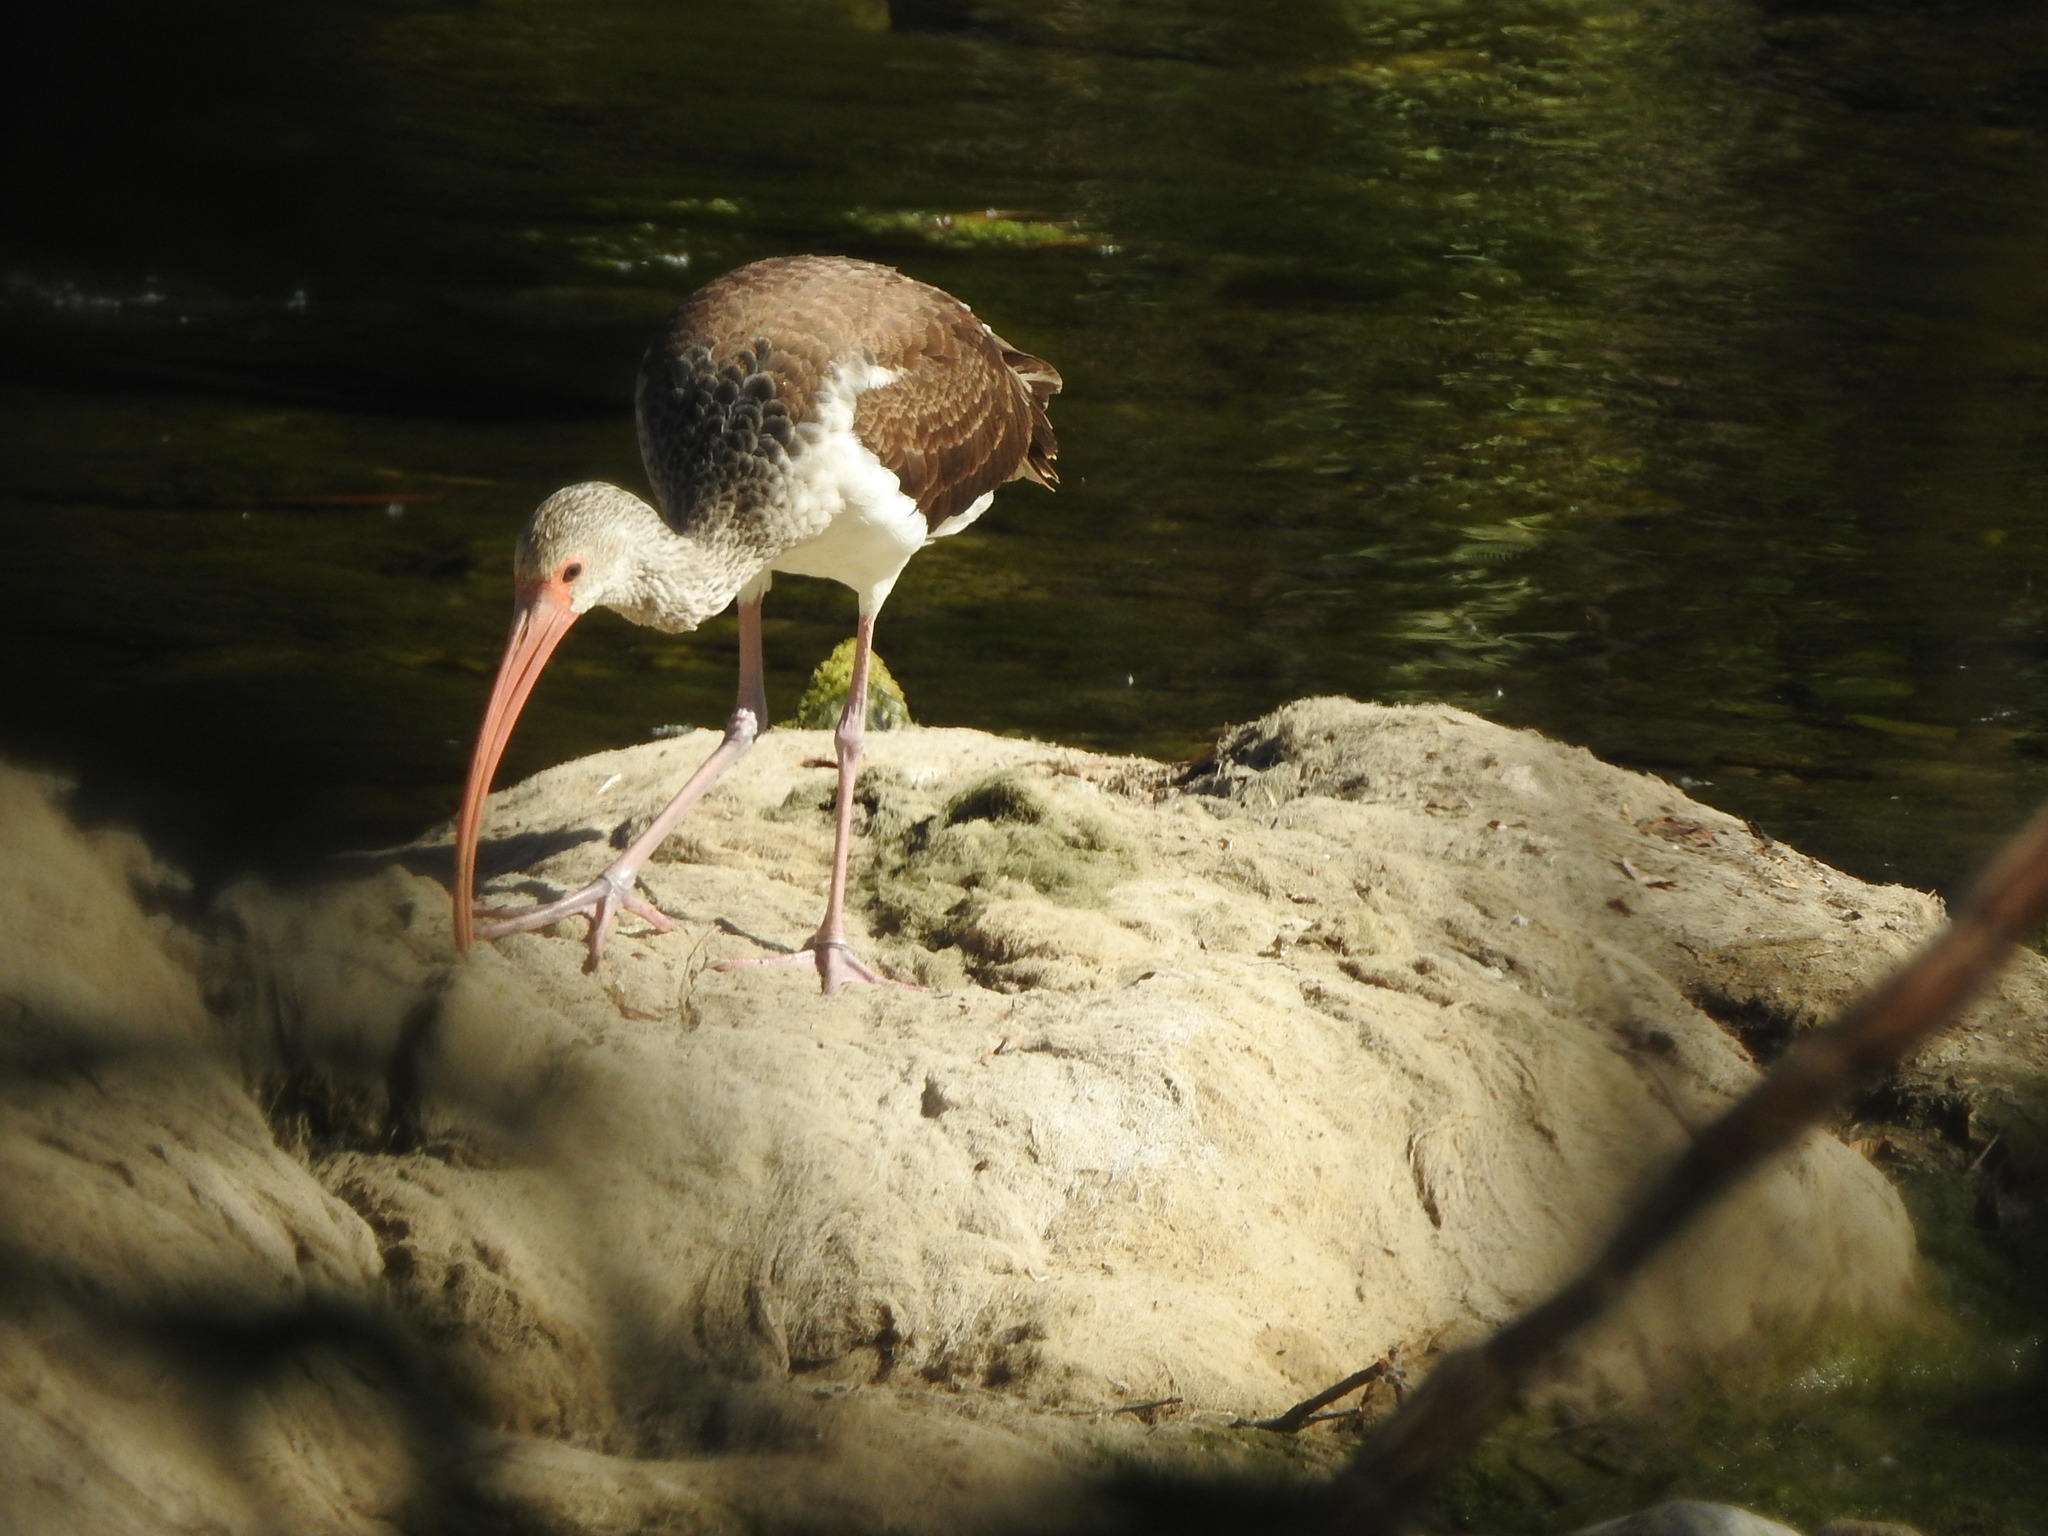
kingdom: Animalia
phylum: Chordata
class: Aves
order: Pelecaniformes
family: Threskiornithidae
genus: Eudocimus
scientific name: Eudocimus albus
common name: White ibis
